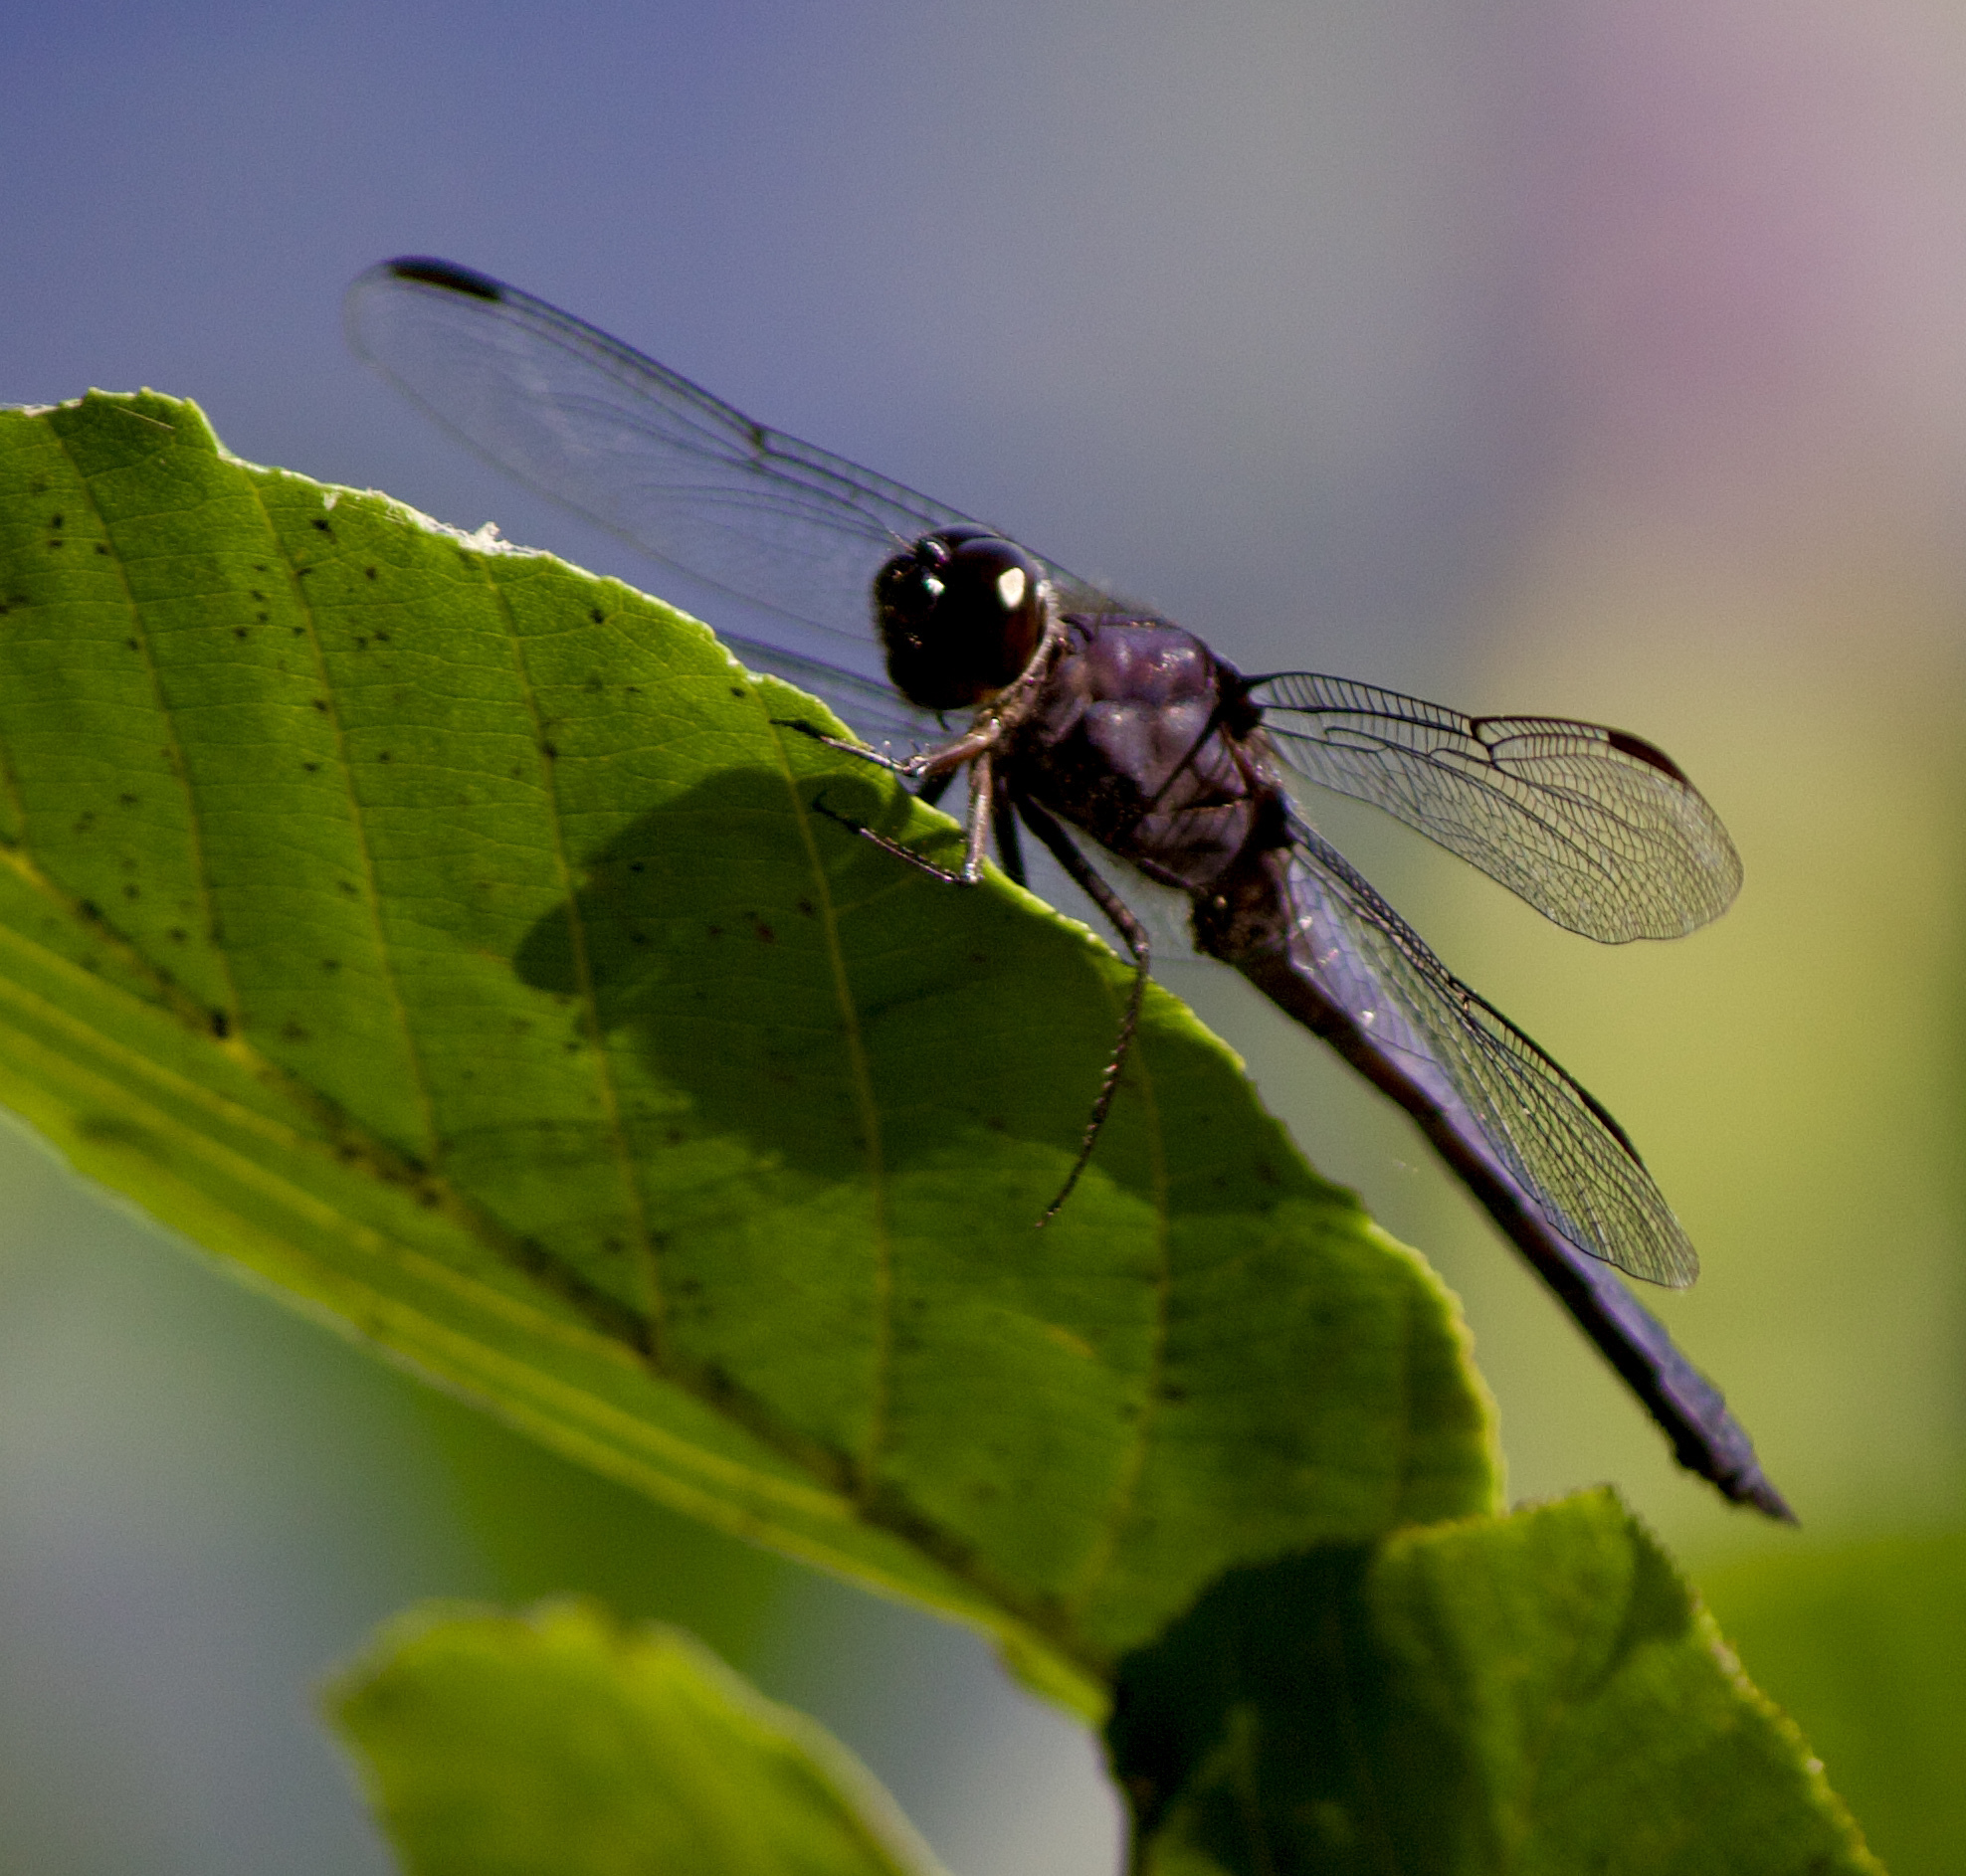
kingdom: Animalia
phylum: Arthropoda
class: Insecta
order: Odonata
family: Libellulidae
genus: Libellula
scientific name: Libellula incesta
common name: Slaty skimmer
